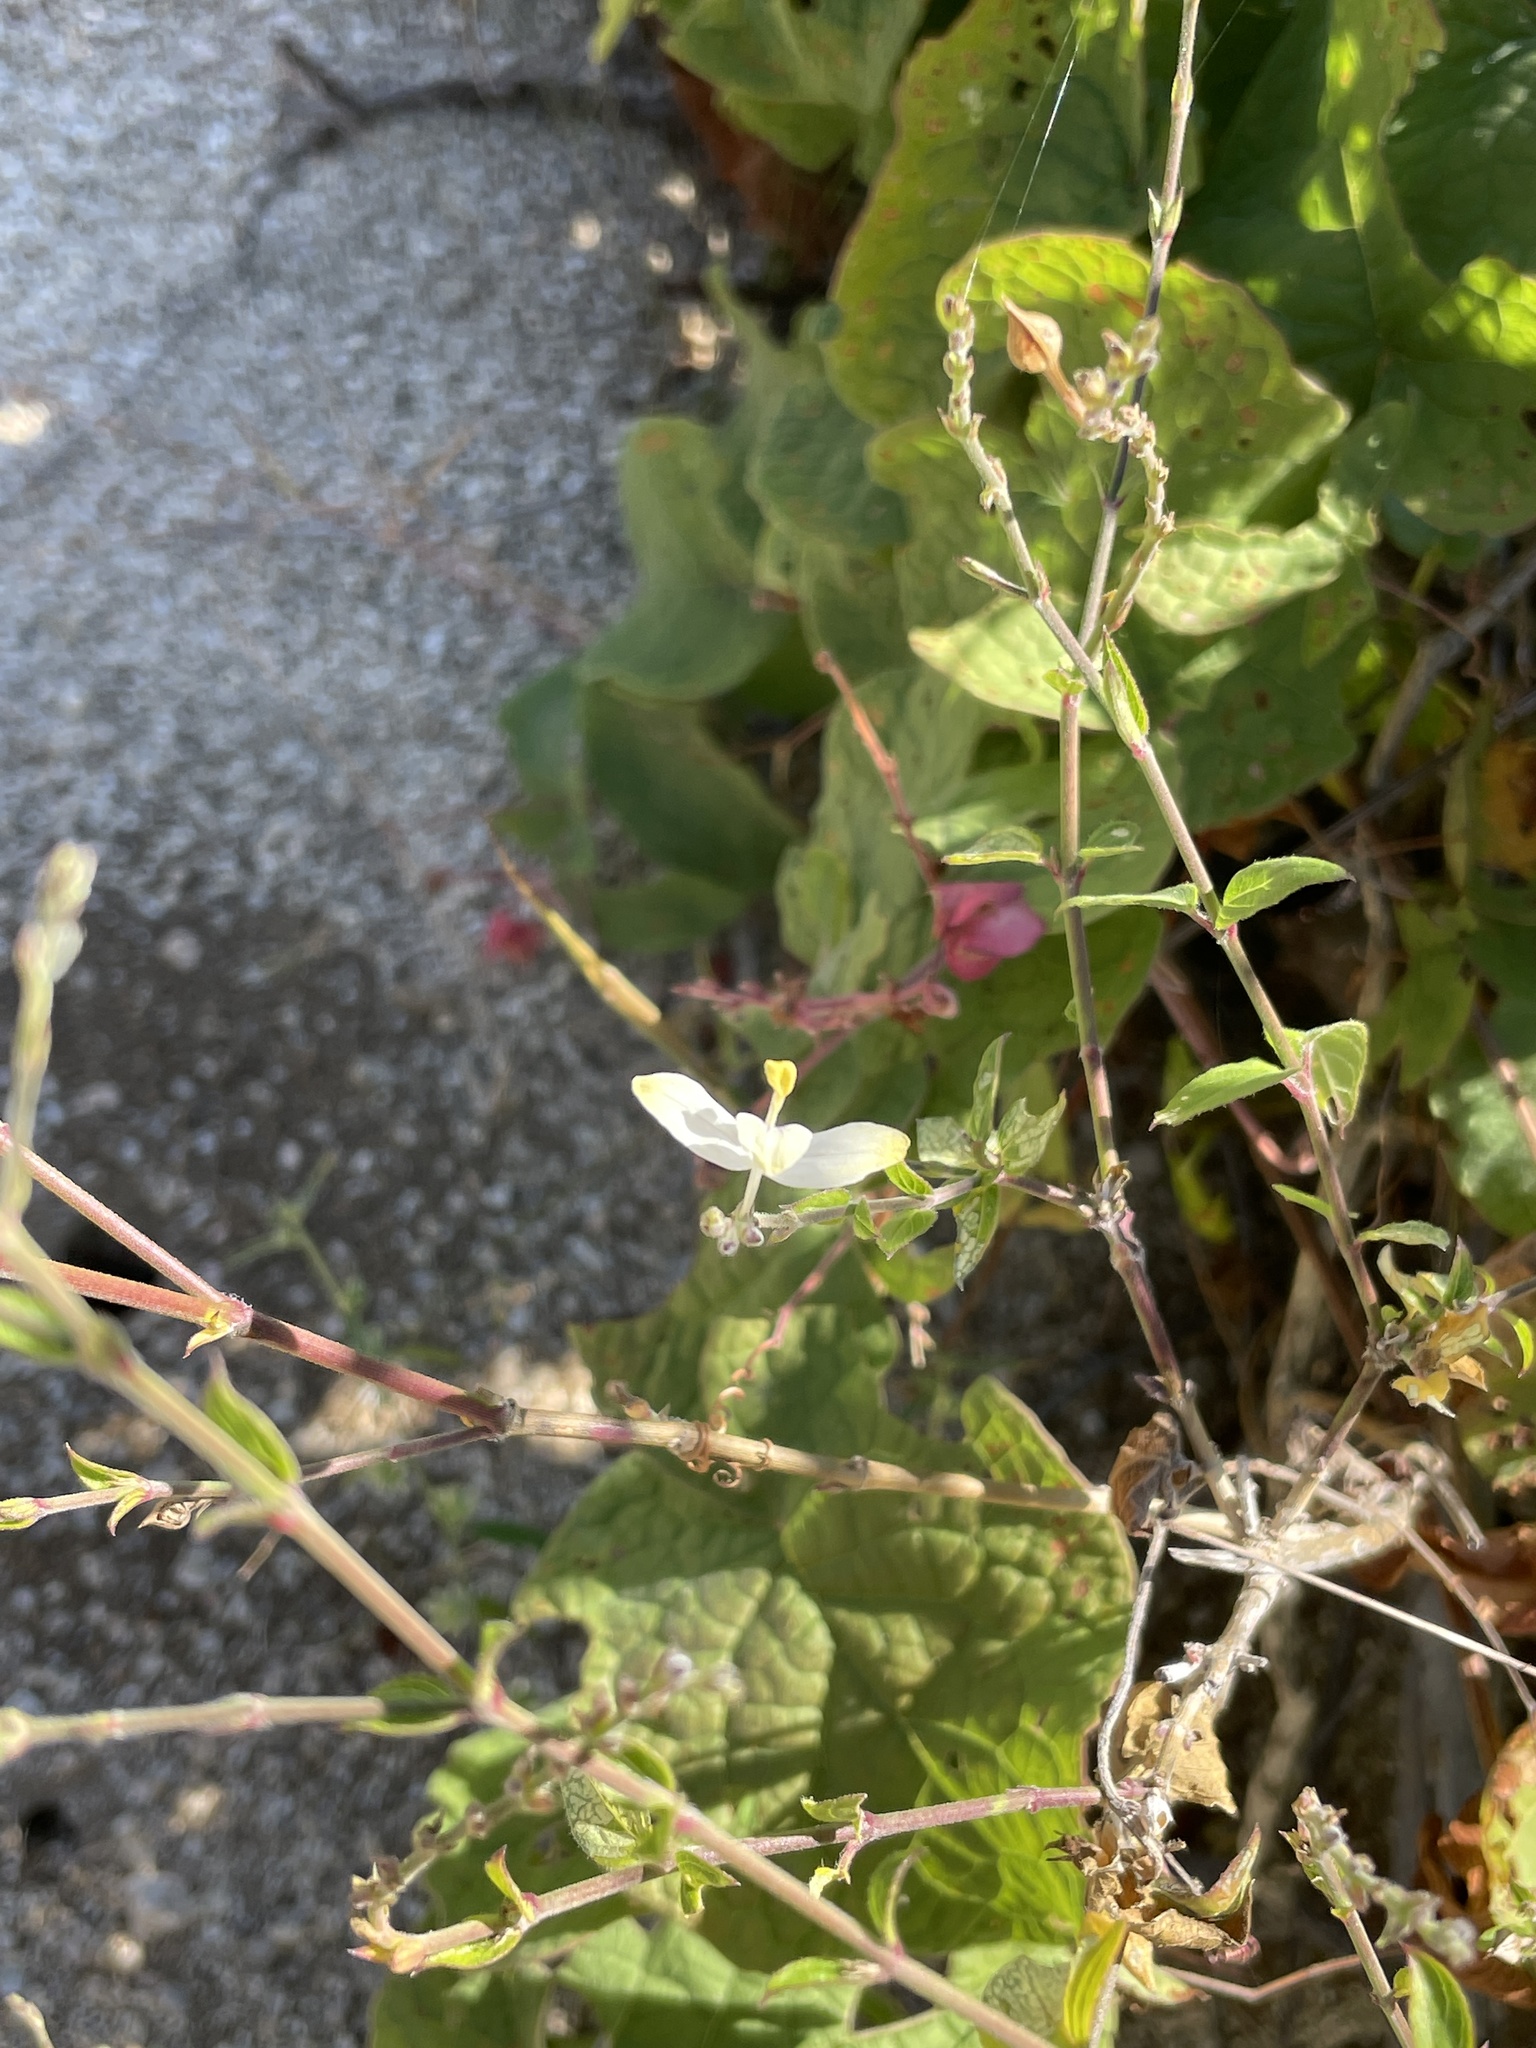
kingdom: Plantae
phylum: Tracheophyta
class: Magnoliopsida
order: Lamiales
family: Acanthaceae
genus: Carlowrightia
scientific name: Carlowrightia arizonica
